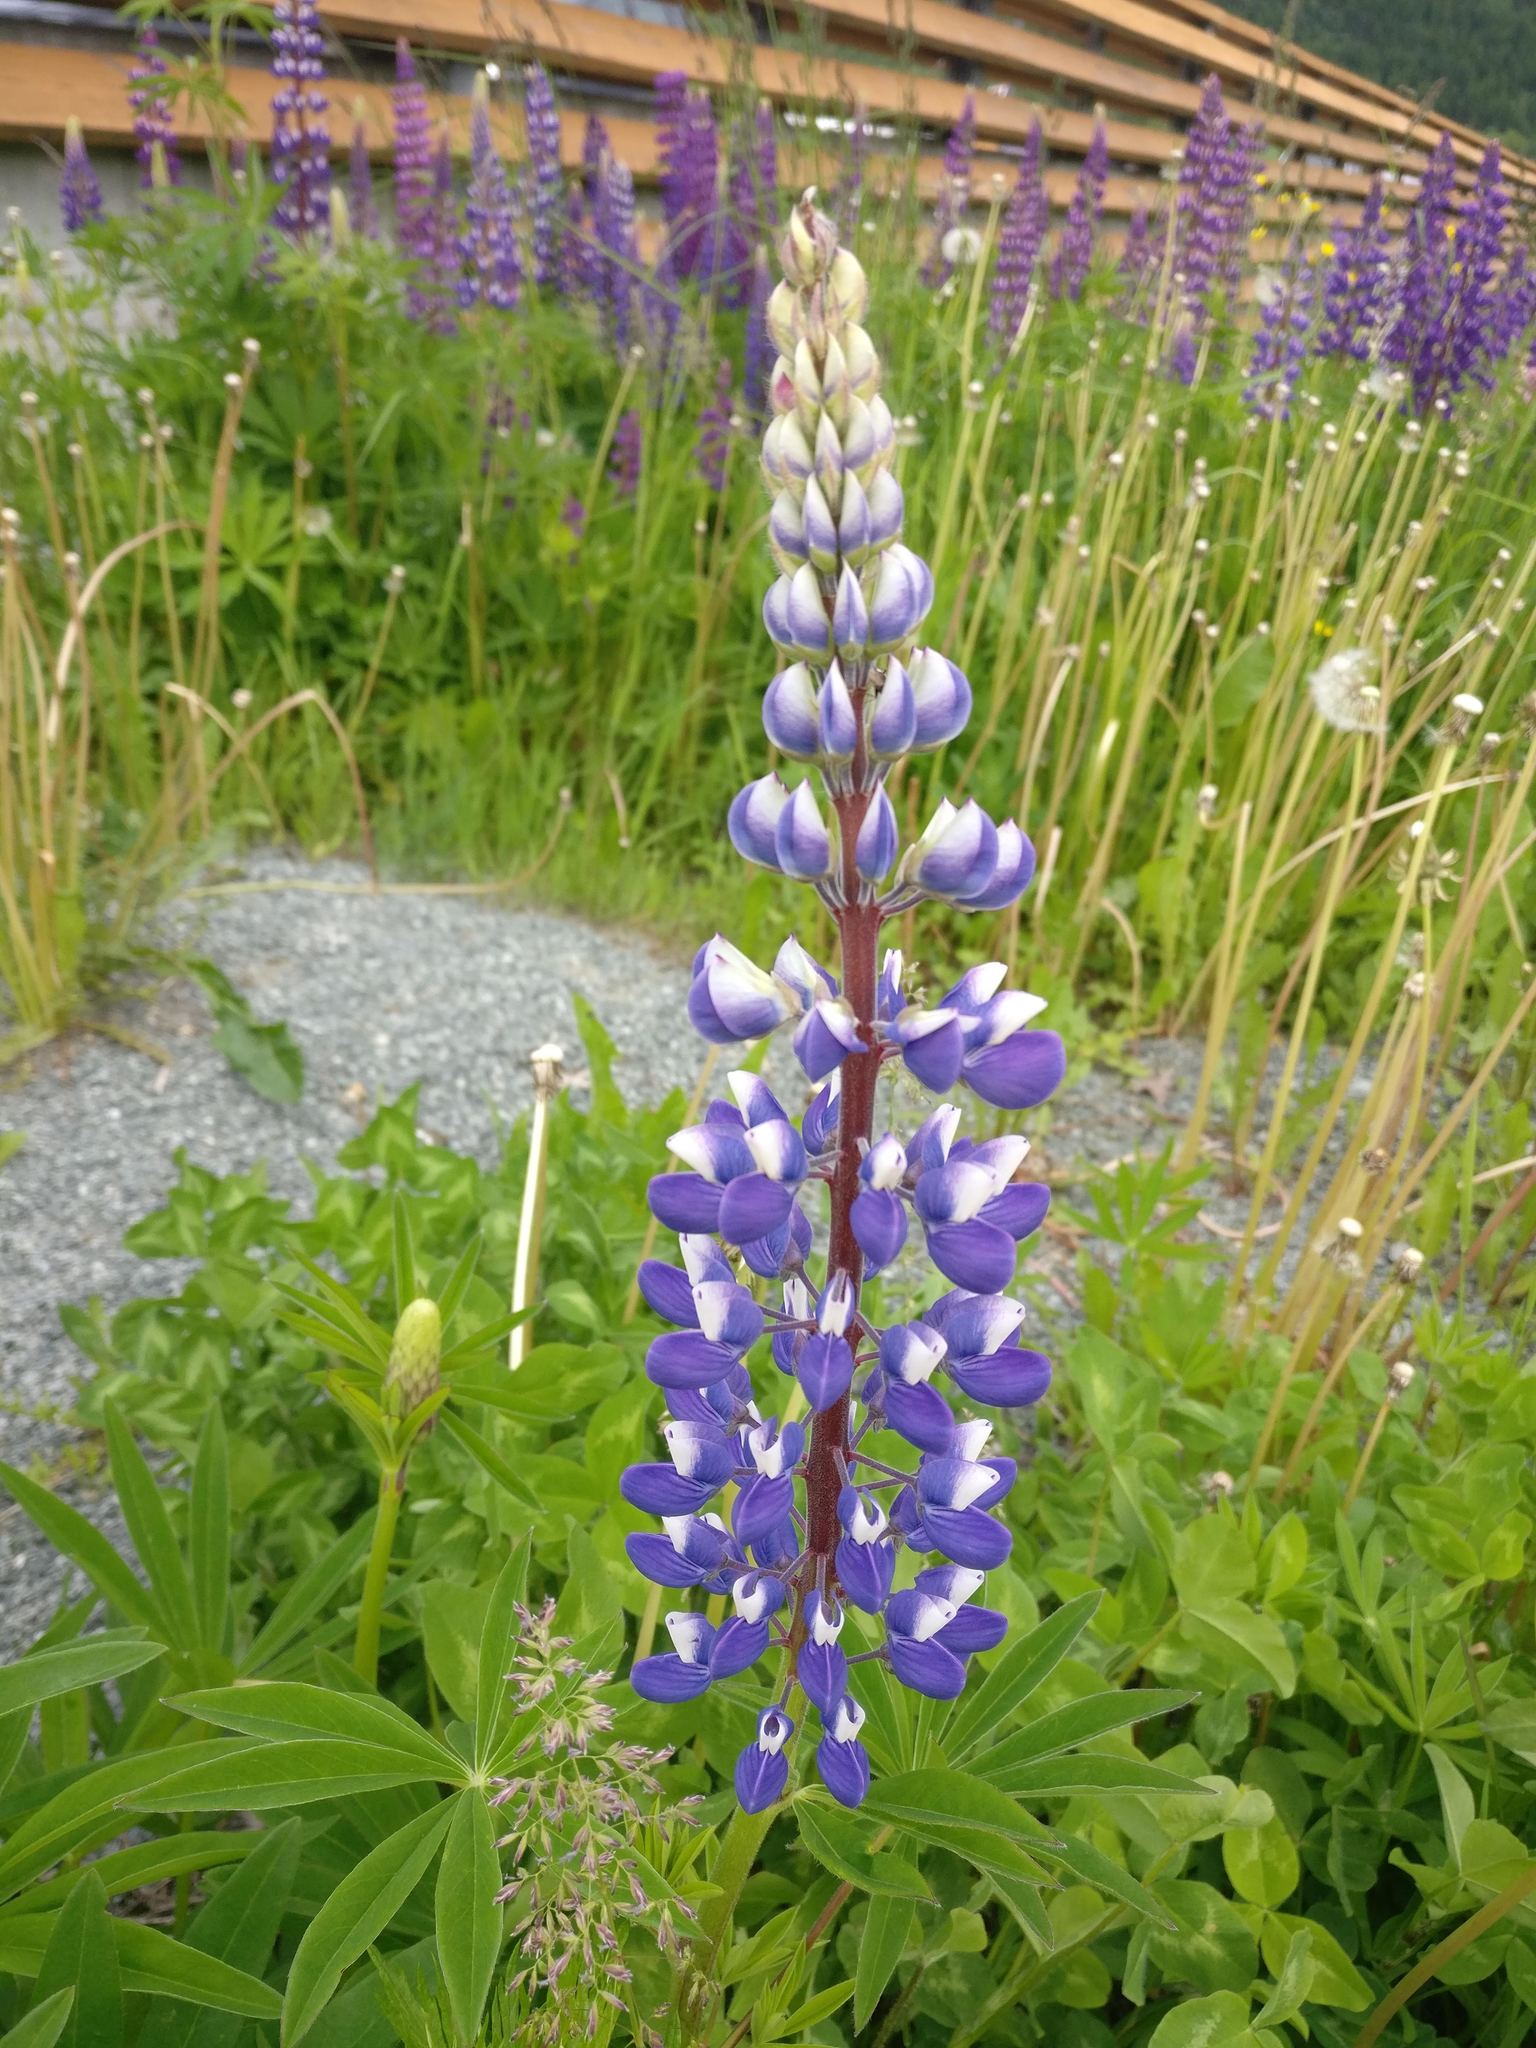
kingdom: Plantae
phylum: Tracheophyta
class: Magnoliopsida
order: Fabales
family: Fabaceae
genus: Lupinus
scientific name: Lupinus polyphyllus
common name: Garden lupin
